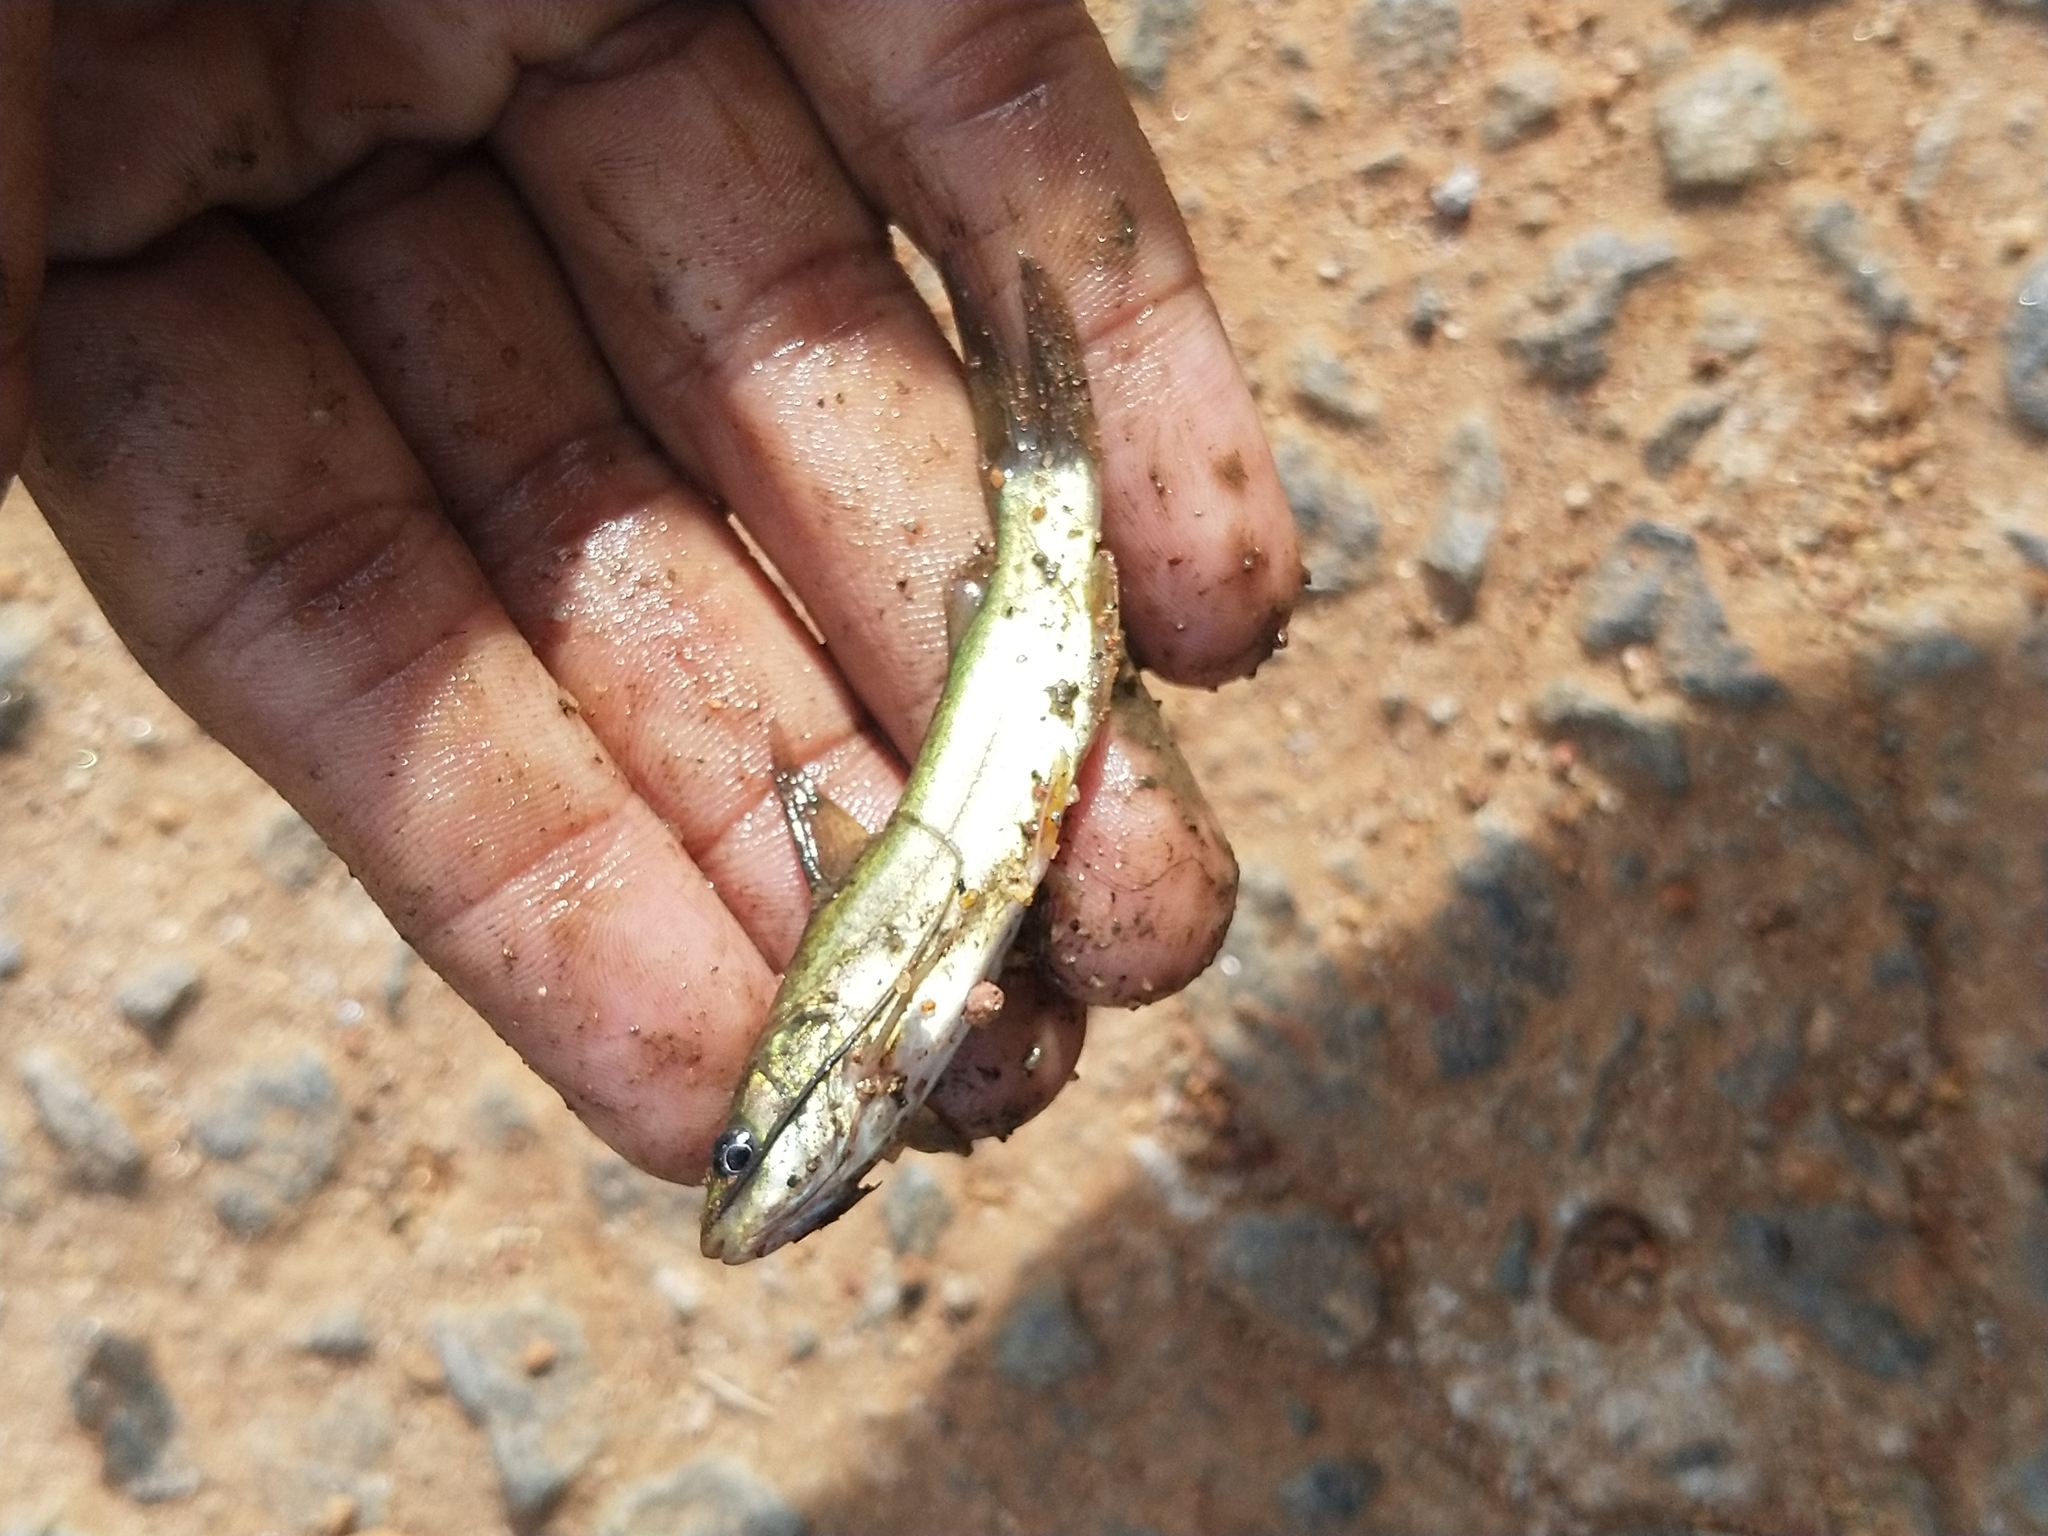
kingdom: Animalia
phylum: Chordata
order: Siluriformes
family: Bagridae
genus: Mystus
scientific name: Mystus gulio
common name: Long whiskers catfish
